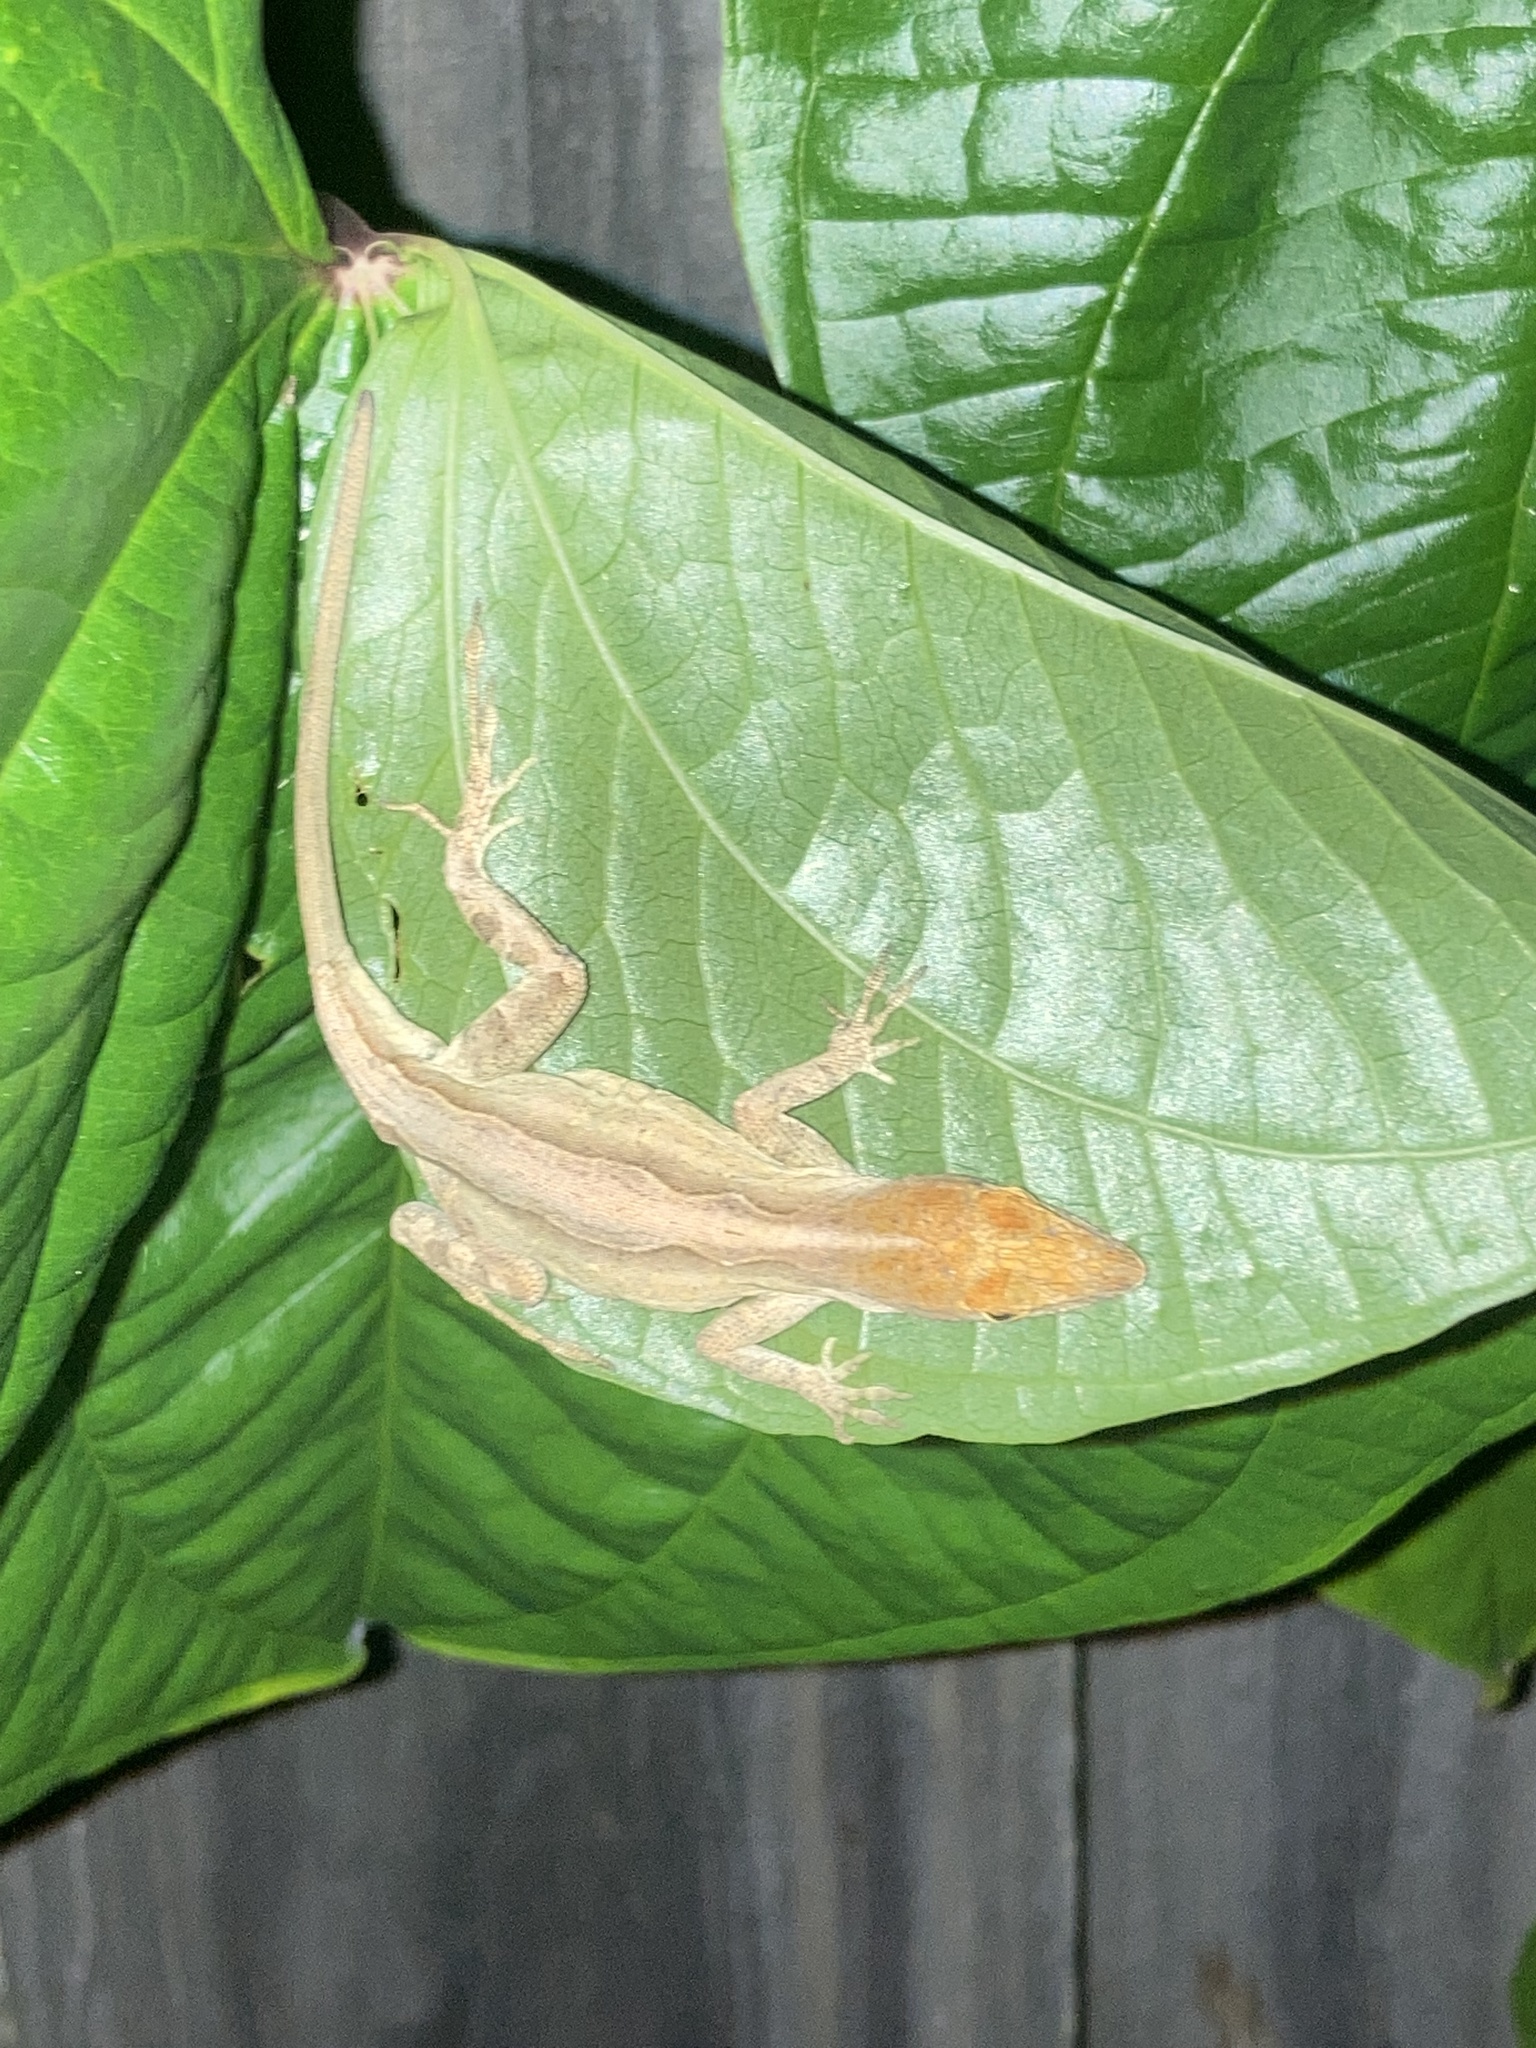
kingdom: Animalia
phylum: Chordata
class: Squamata
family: Dactyloidae
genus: Anolis
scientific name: Anolis sagrei
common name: Brown anole
